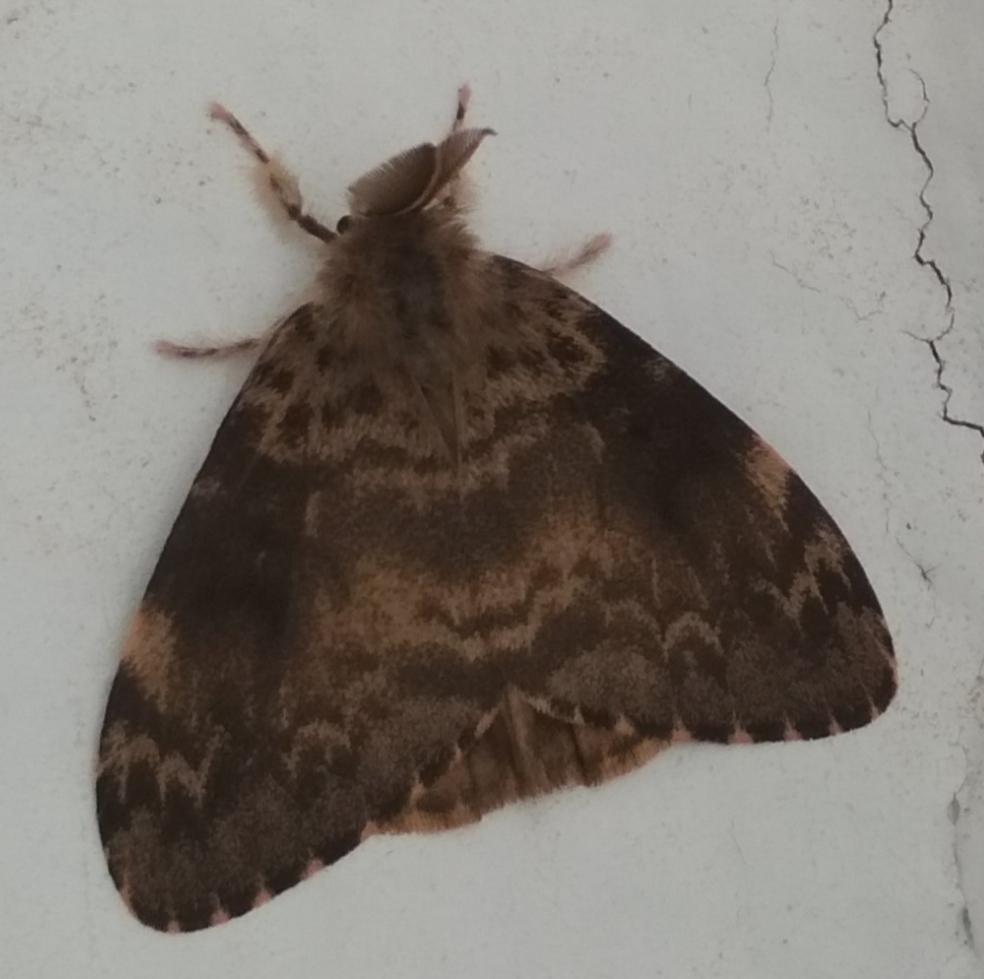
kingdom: Animalia
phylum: Arthropoda
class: Insecta
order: Lepidoptera
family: Erebidae
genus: Lymantria
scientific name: Lymantria ampla
